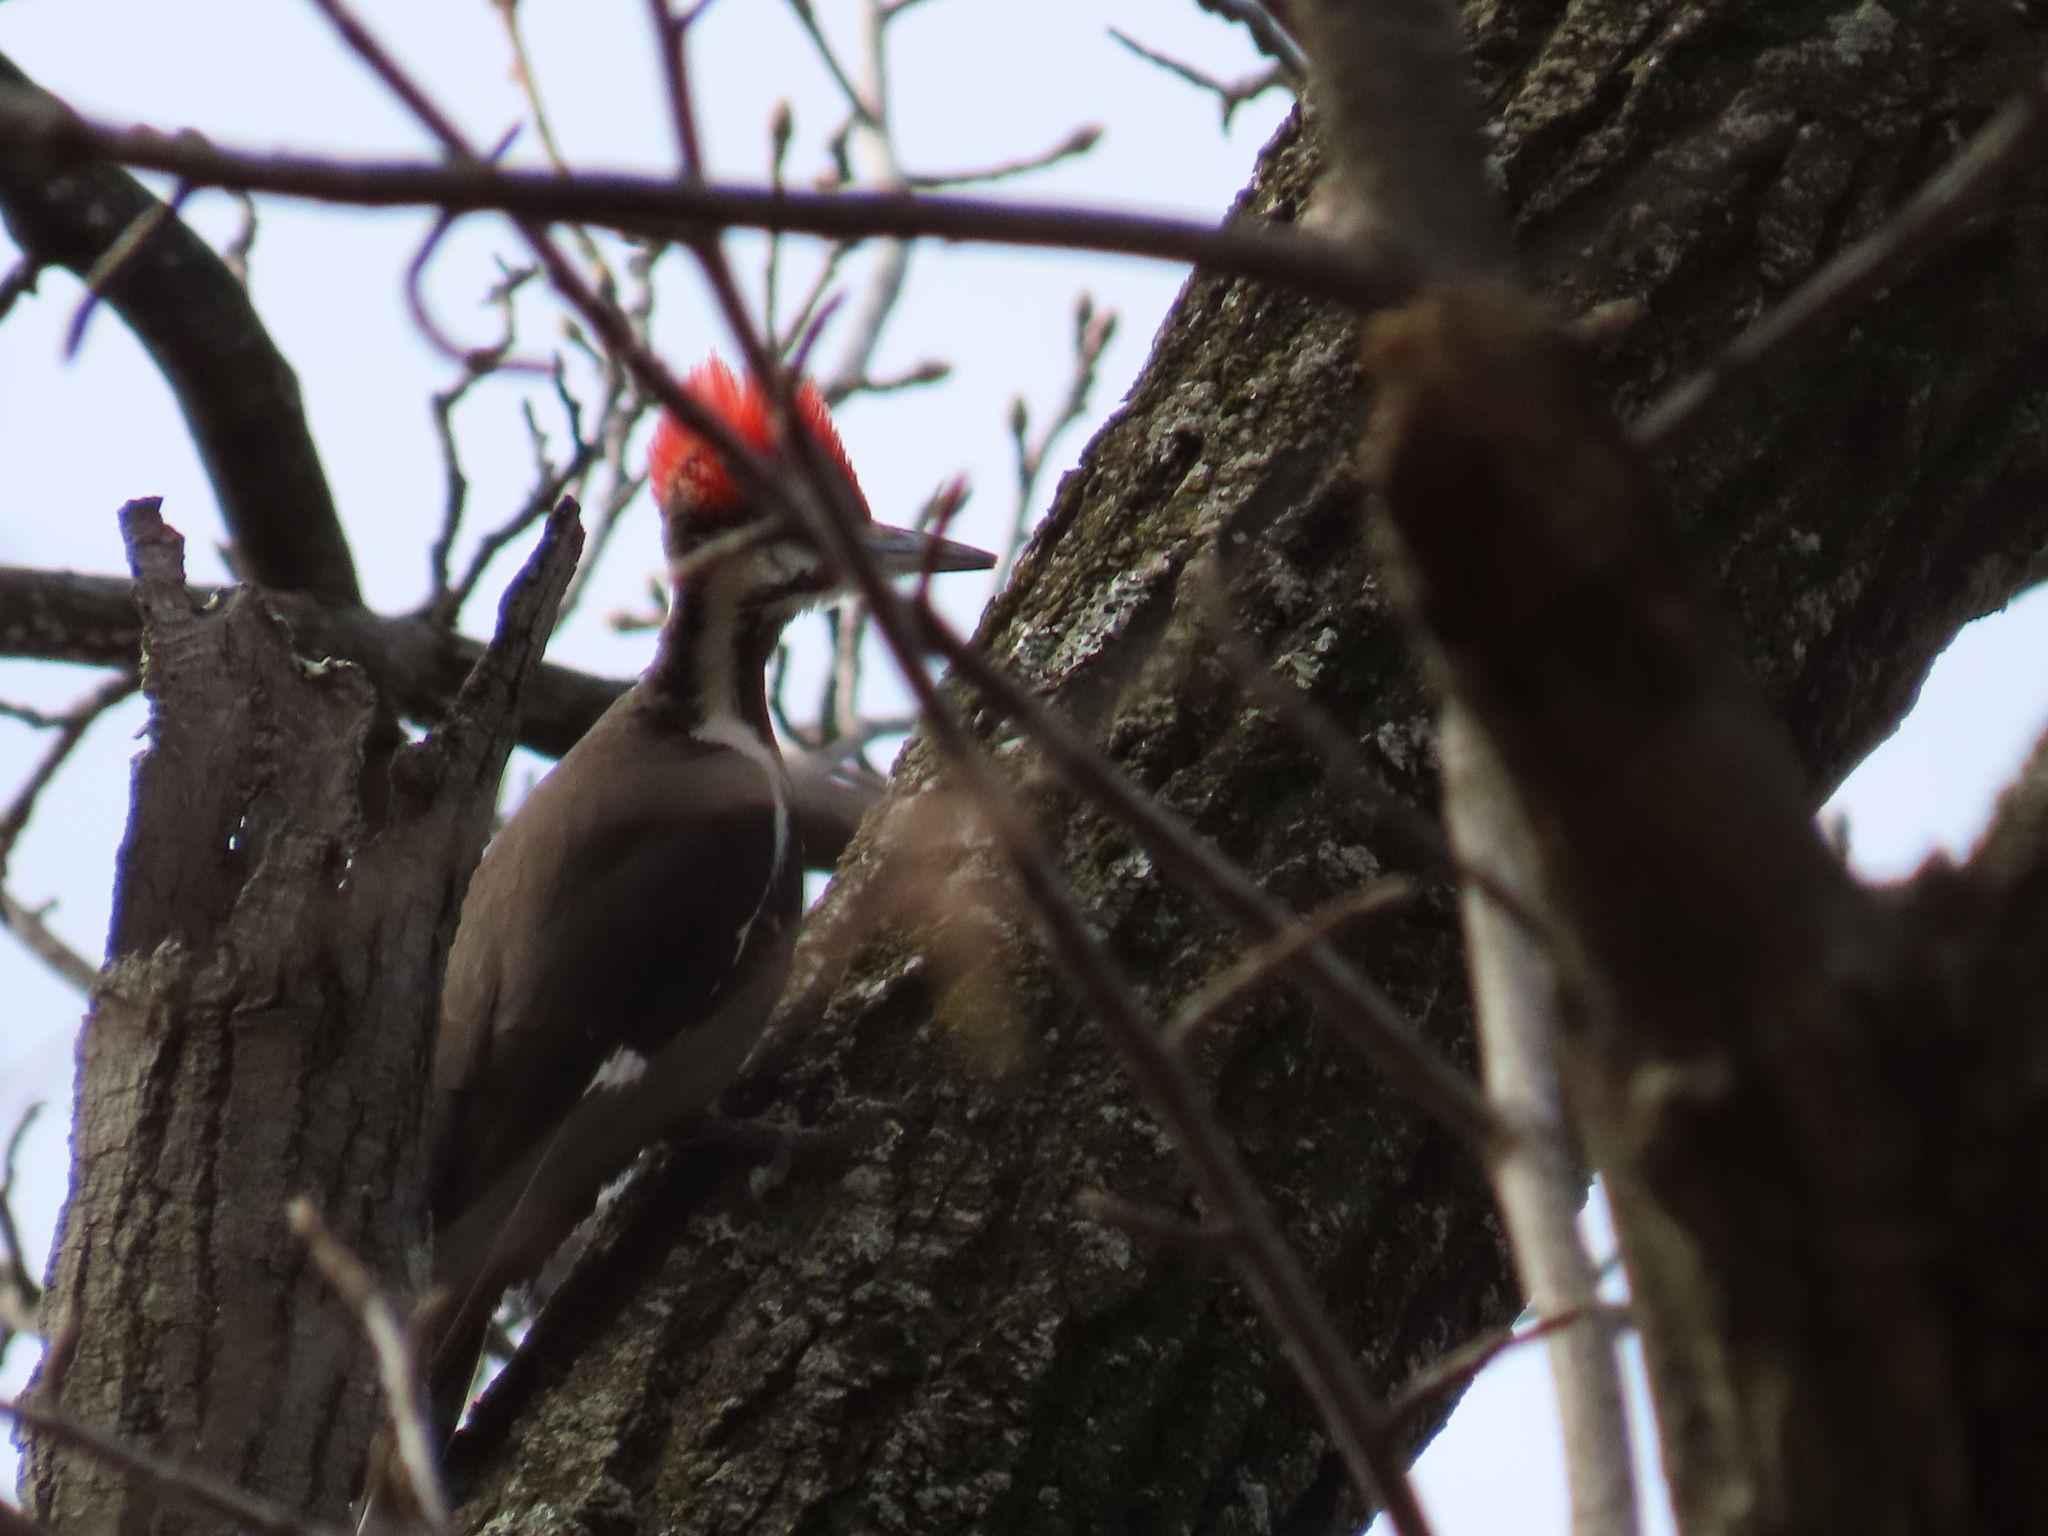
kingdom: Animalia
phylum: Chordata
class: Aves
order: Piciformes
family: Picidae
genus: Dryocopus
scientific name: Dryocopus pileatus
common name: Pileated woodpecker
